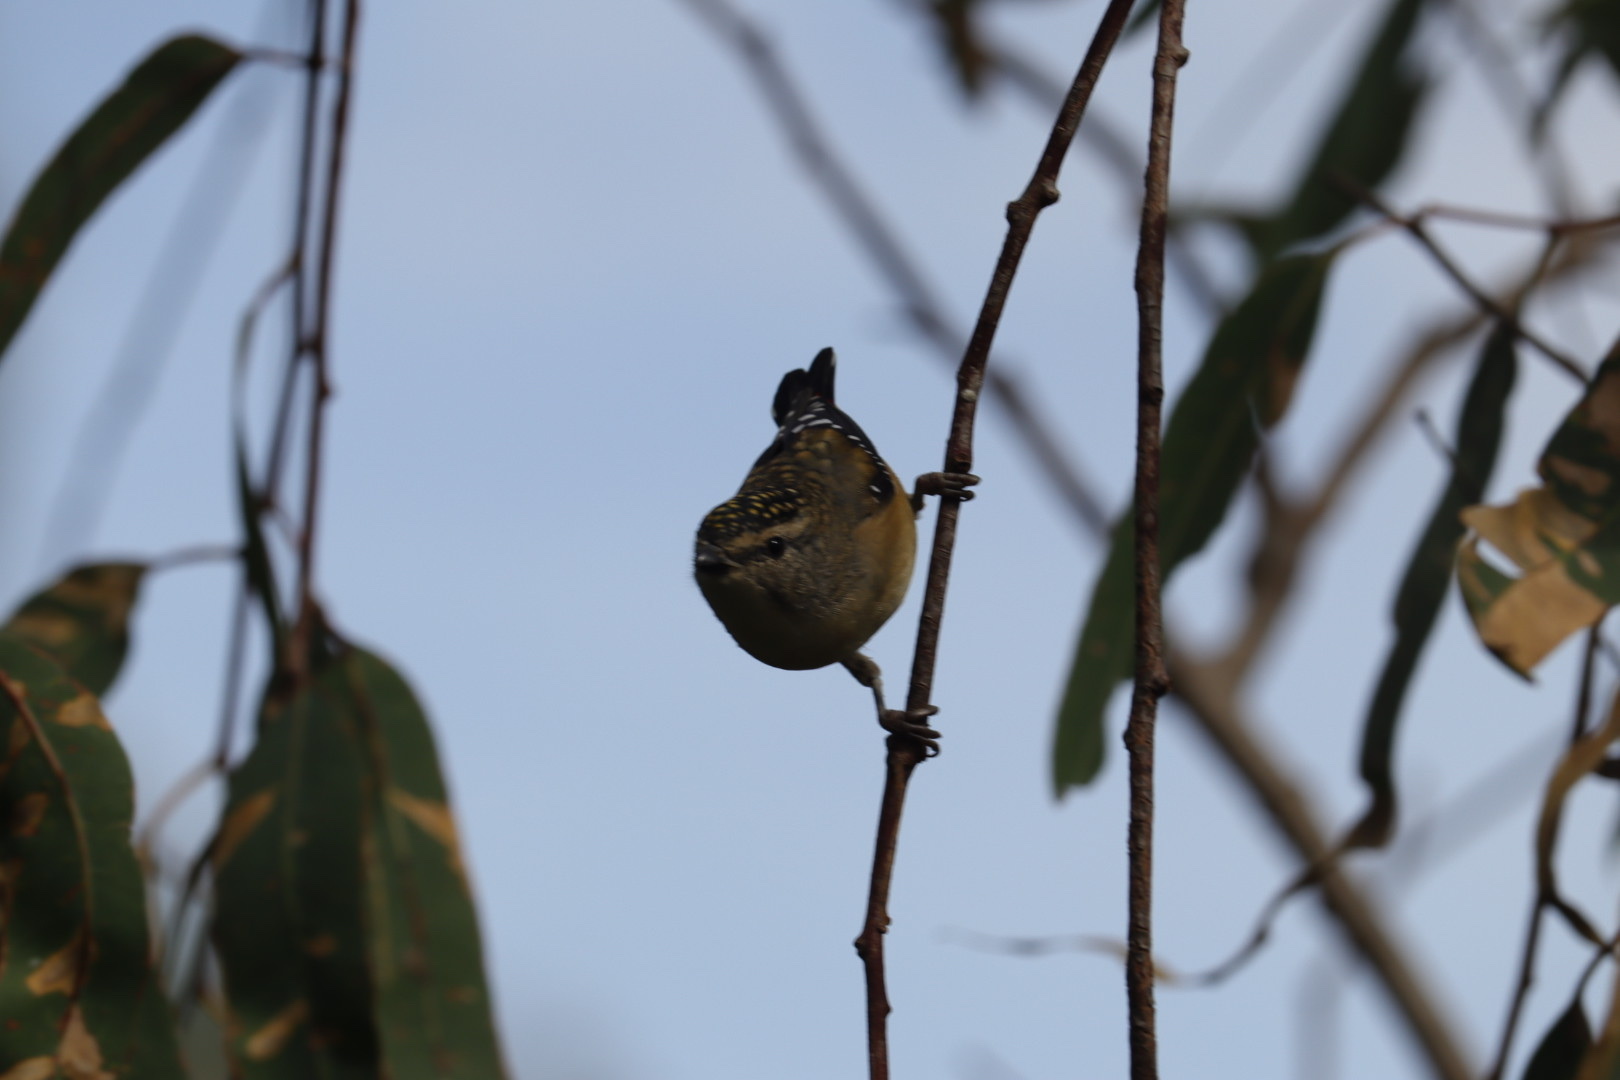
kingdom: Animalia
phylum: Chordata
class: Aves
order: Passeriformes
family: Pardalotidae
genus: Pardalotus
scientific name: Pardalotus punctatus
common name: Spotted pardalote
